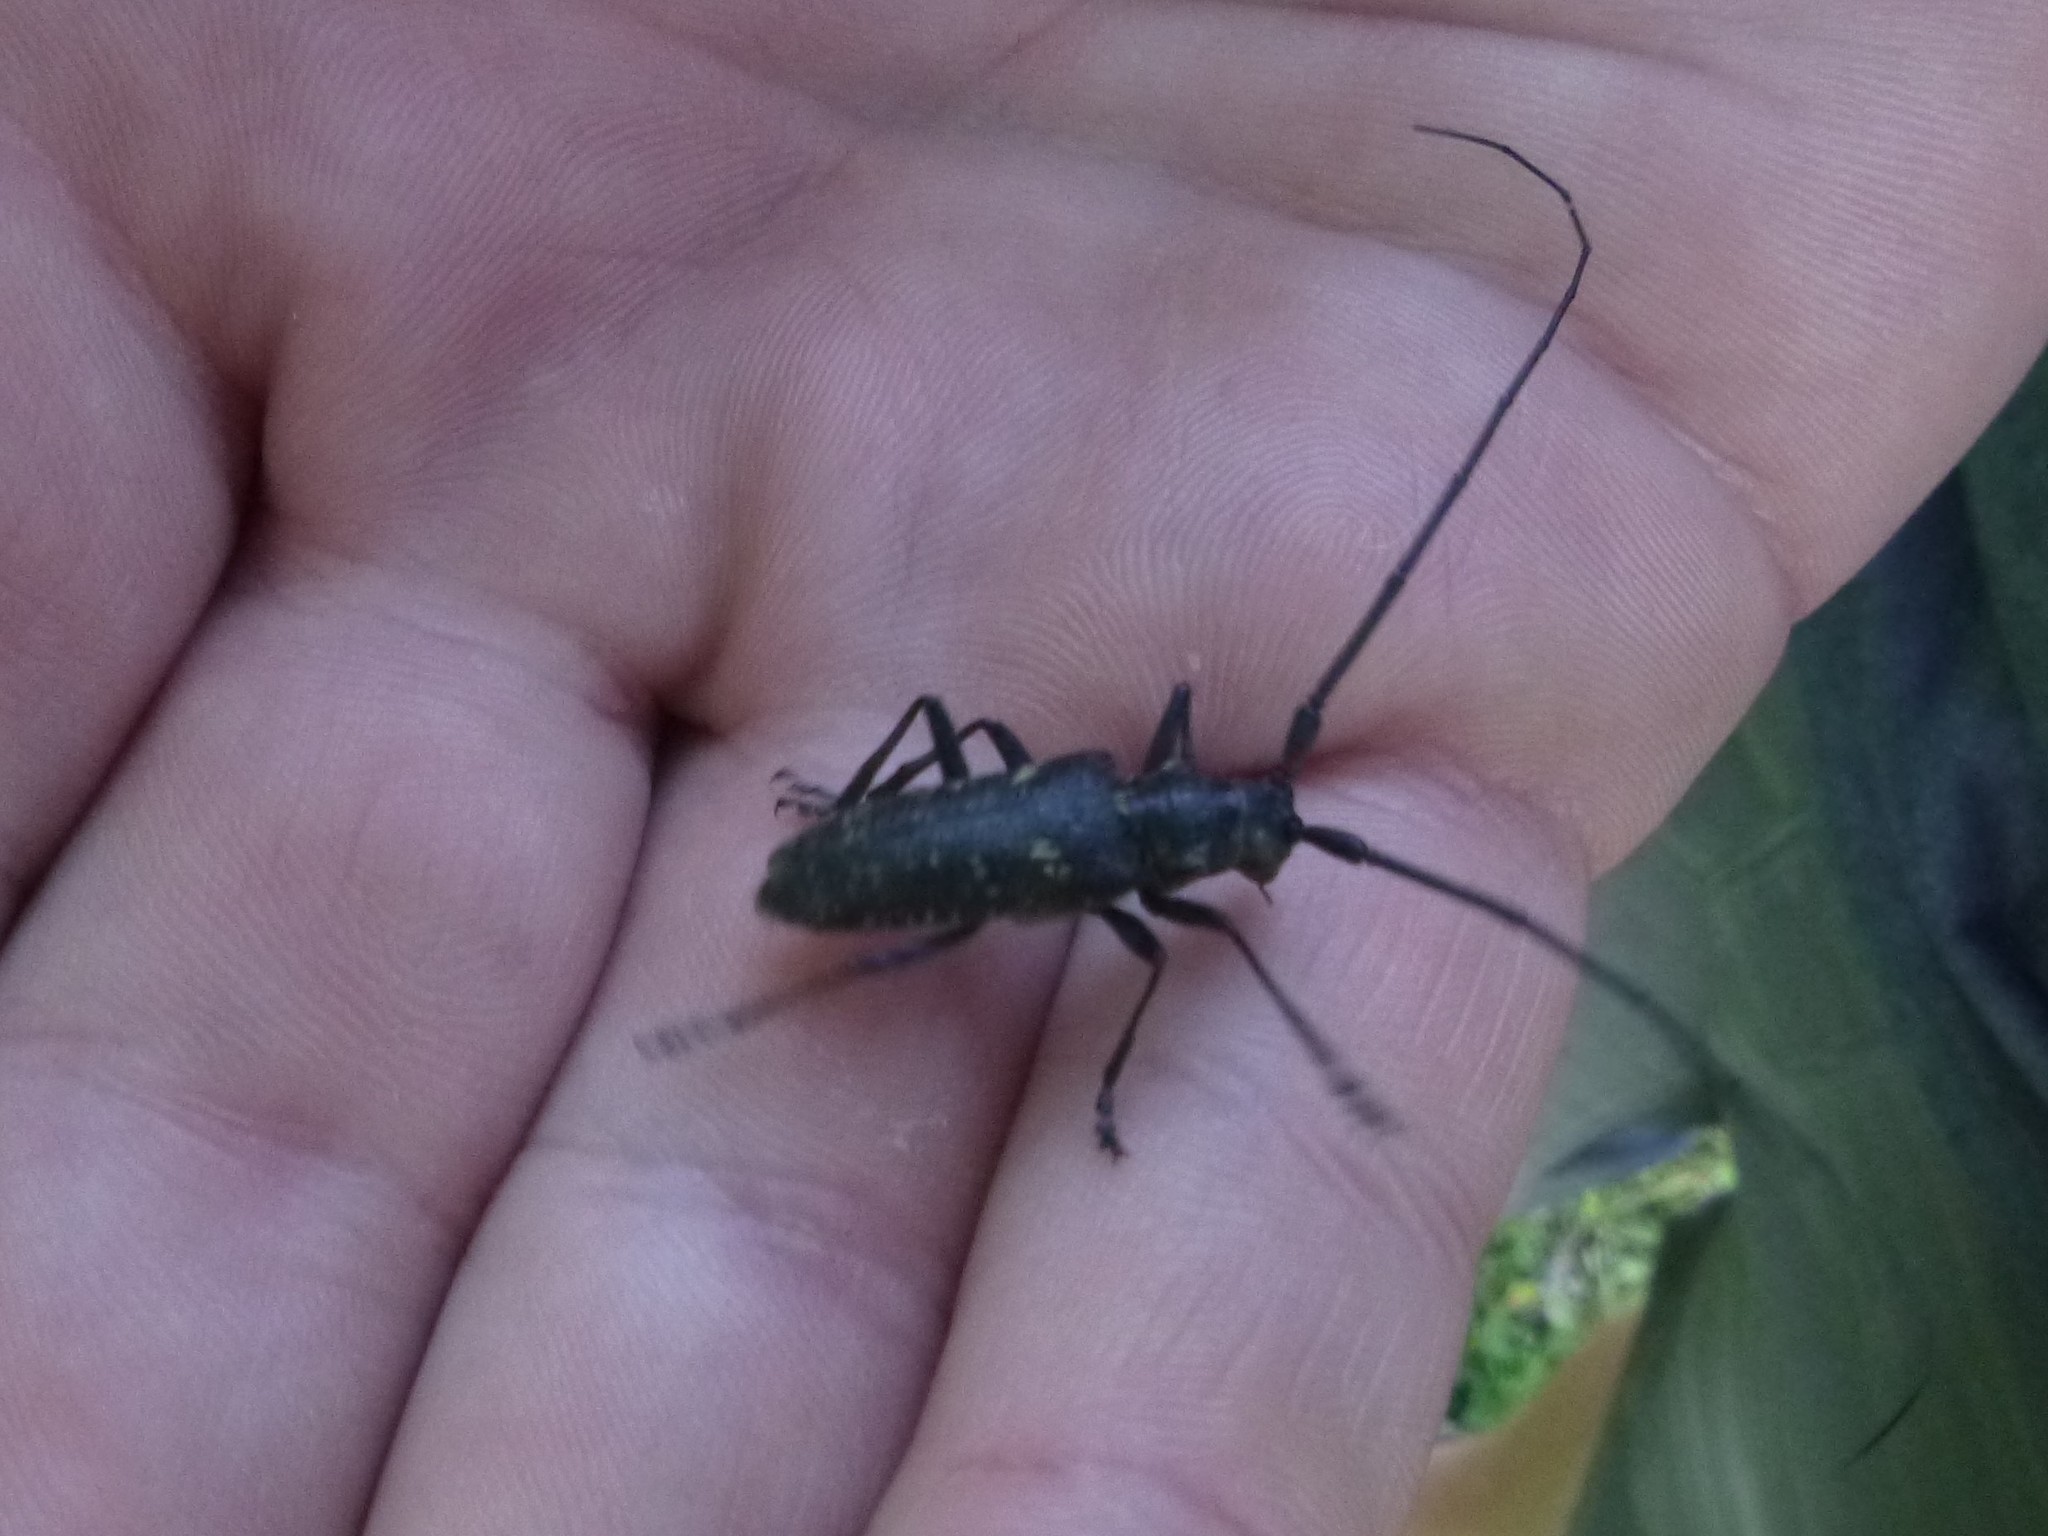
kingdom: Animalia
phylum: Arthropoda
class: Insecta
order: Coleoptera
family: Cerambycidae
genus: Monochamus
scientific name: Monochamus sutor
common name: Pine sawyer
